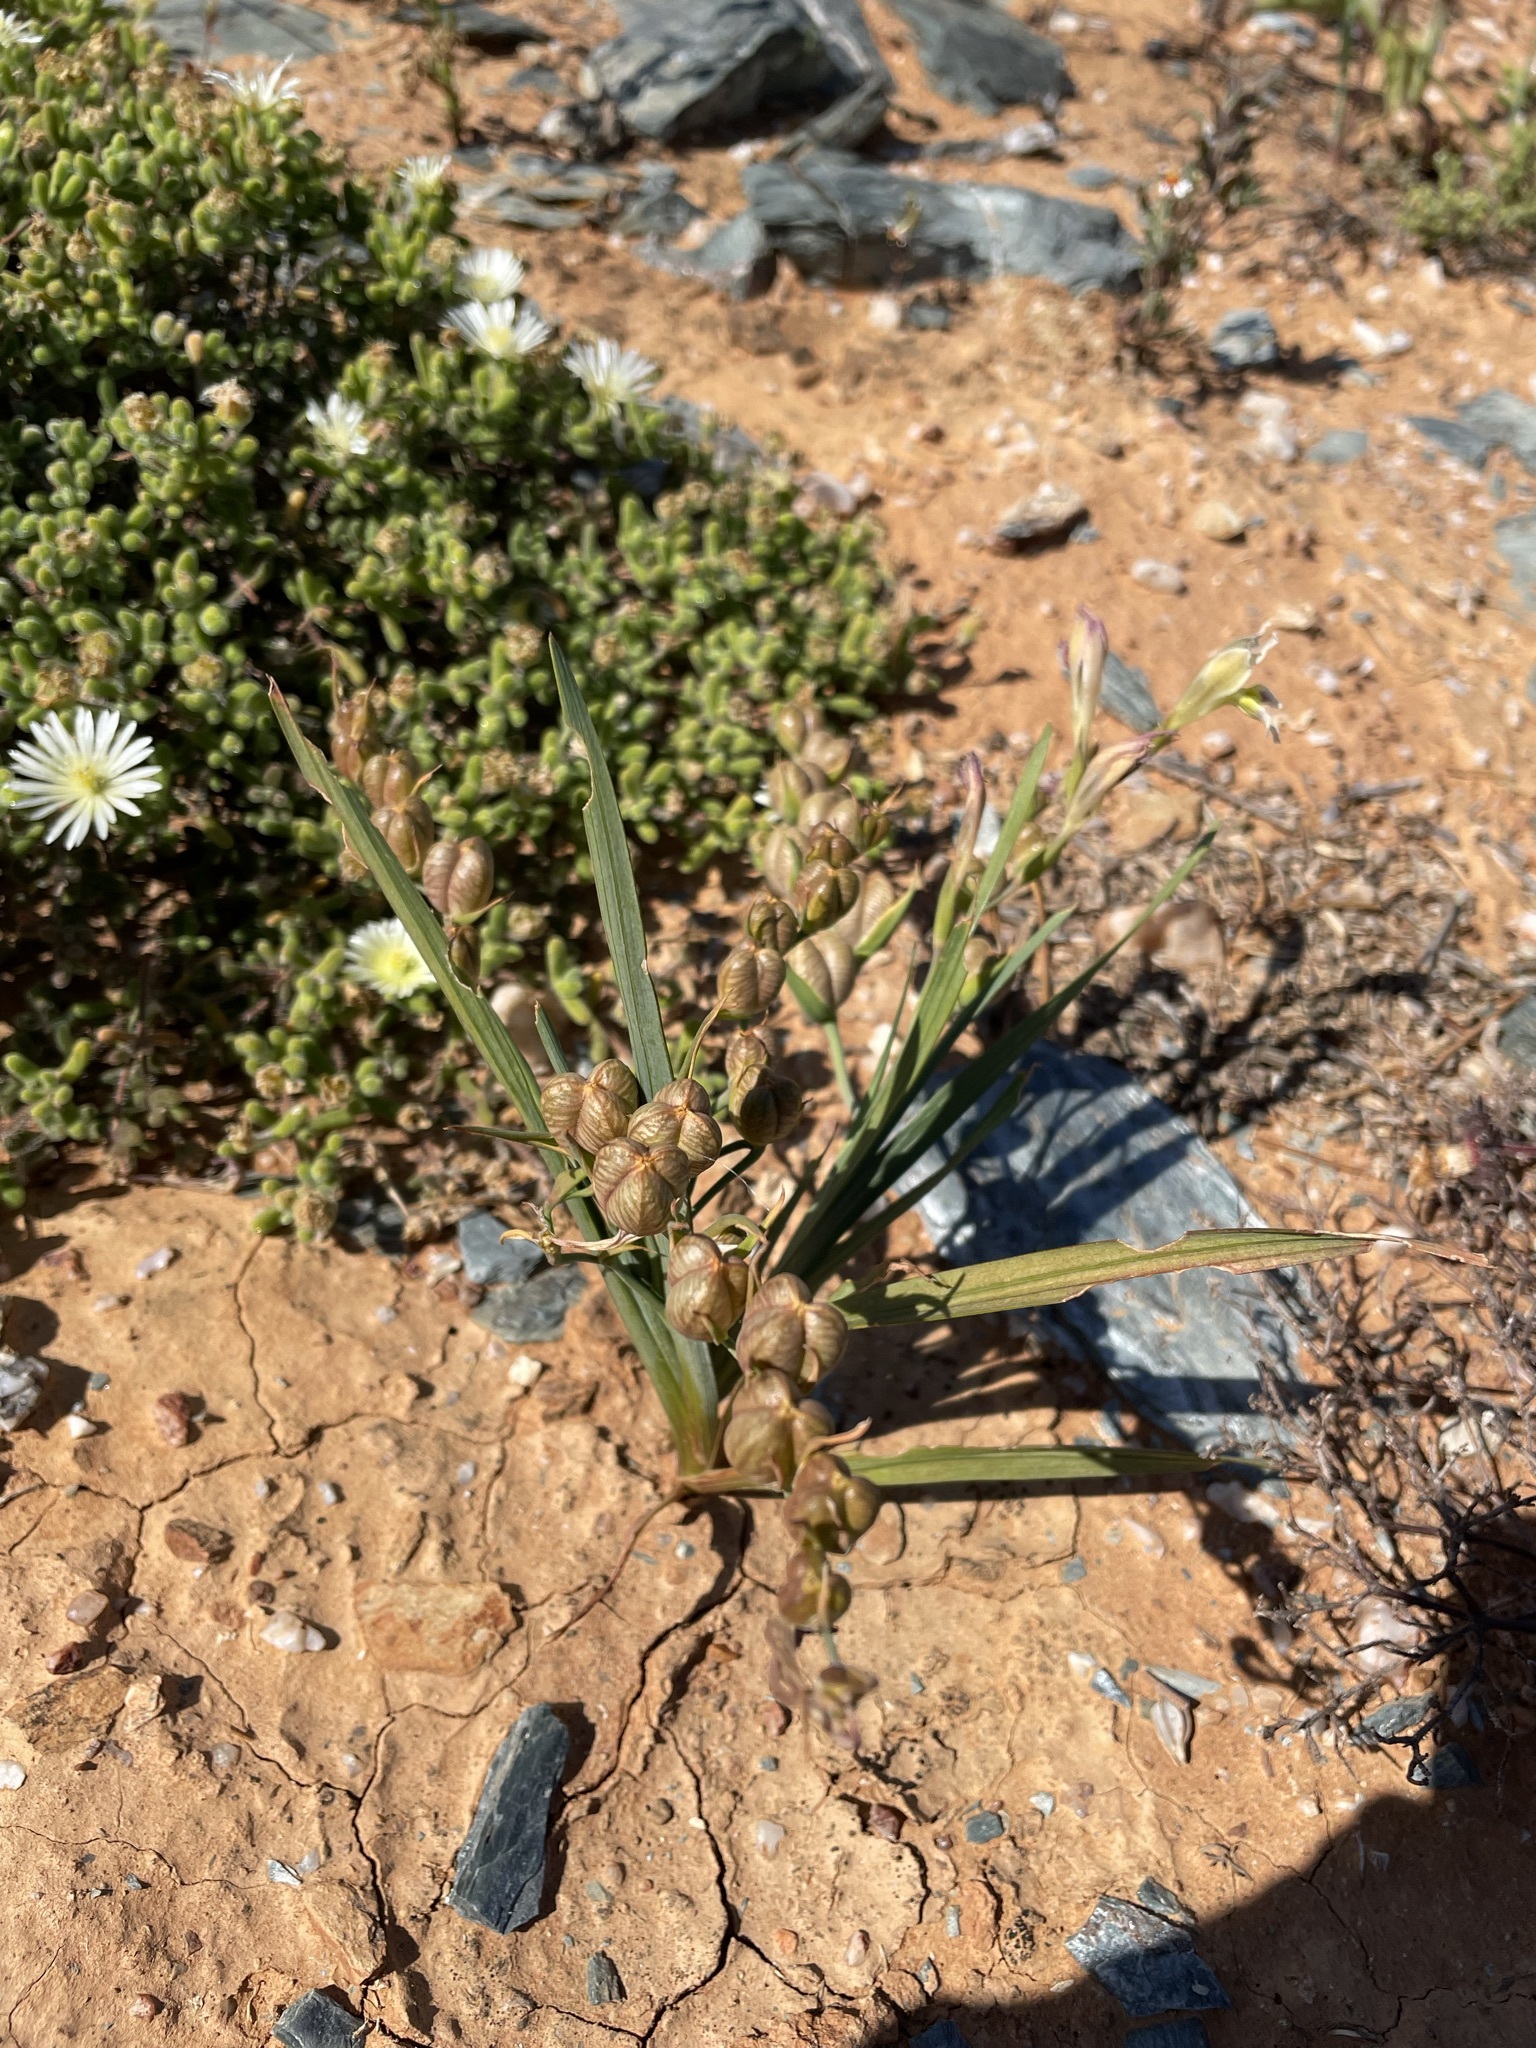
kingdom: Plantae
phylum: Tracheophyta
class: Liliopsida
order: Asparagales
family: Iridaceae
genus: Gladiolus
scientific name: Gladiolus scullyi
